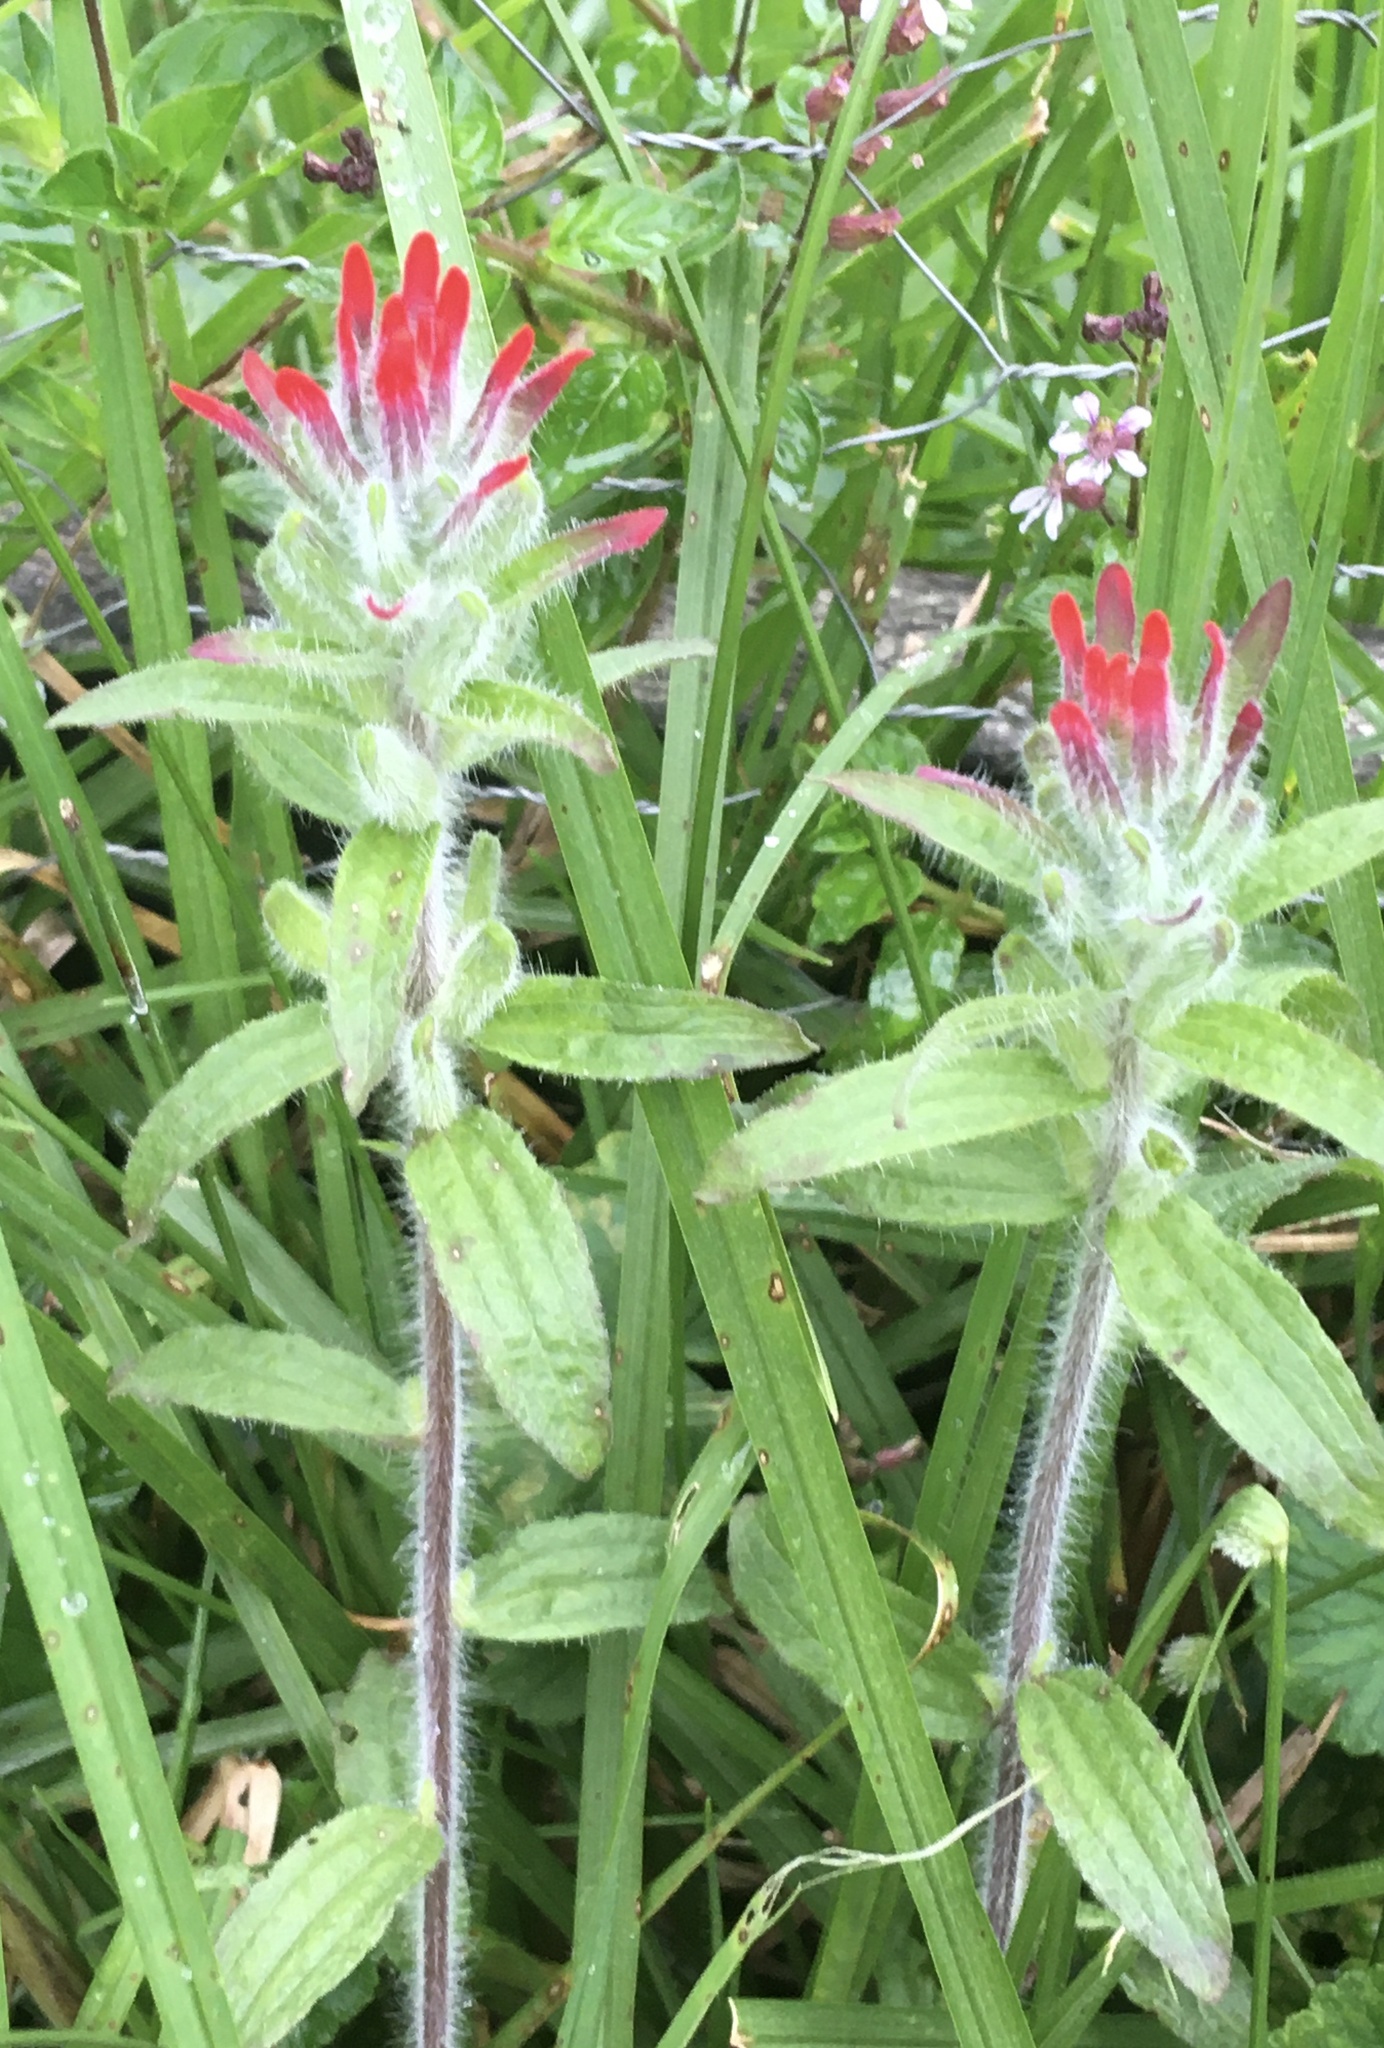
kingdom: Plantae
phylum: Tracheophyta
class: Magnoliopsida
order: Lamiales
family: Orobanchaceae
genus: Castilleja
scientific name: Castilleja arvensis
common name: Indian paintbrush
